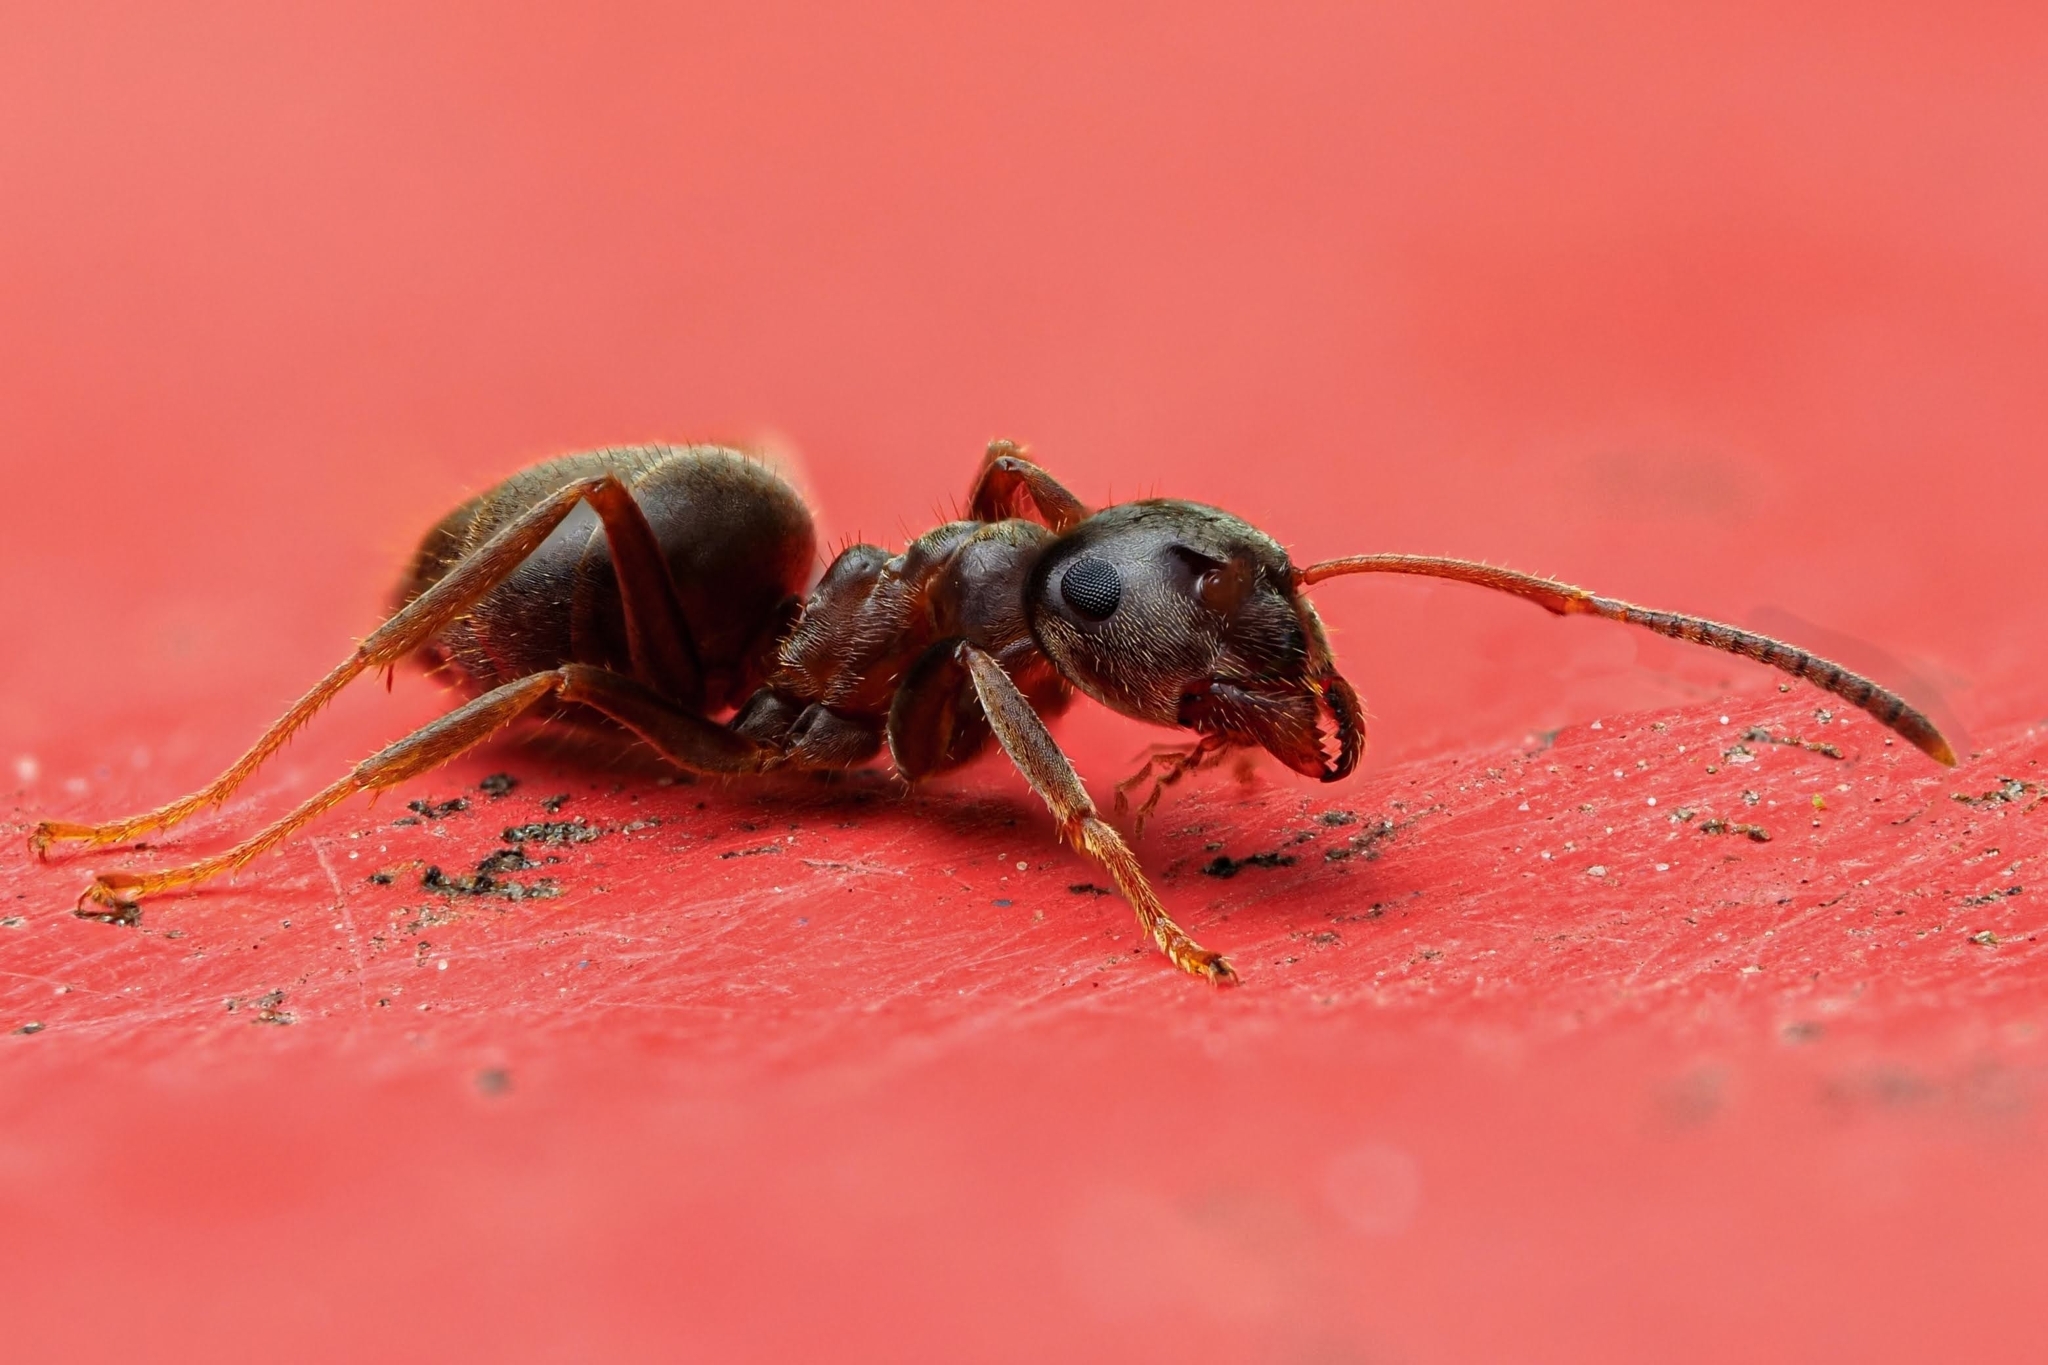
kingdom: Animalia
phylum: Arthropoda
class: Insecta
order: Hymenoptera
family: Formicidae
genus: Lasius
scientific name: Lasius niger
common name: Small black ant
